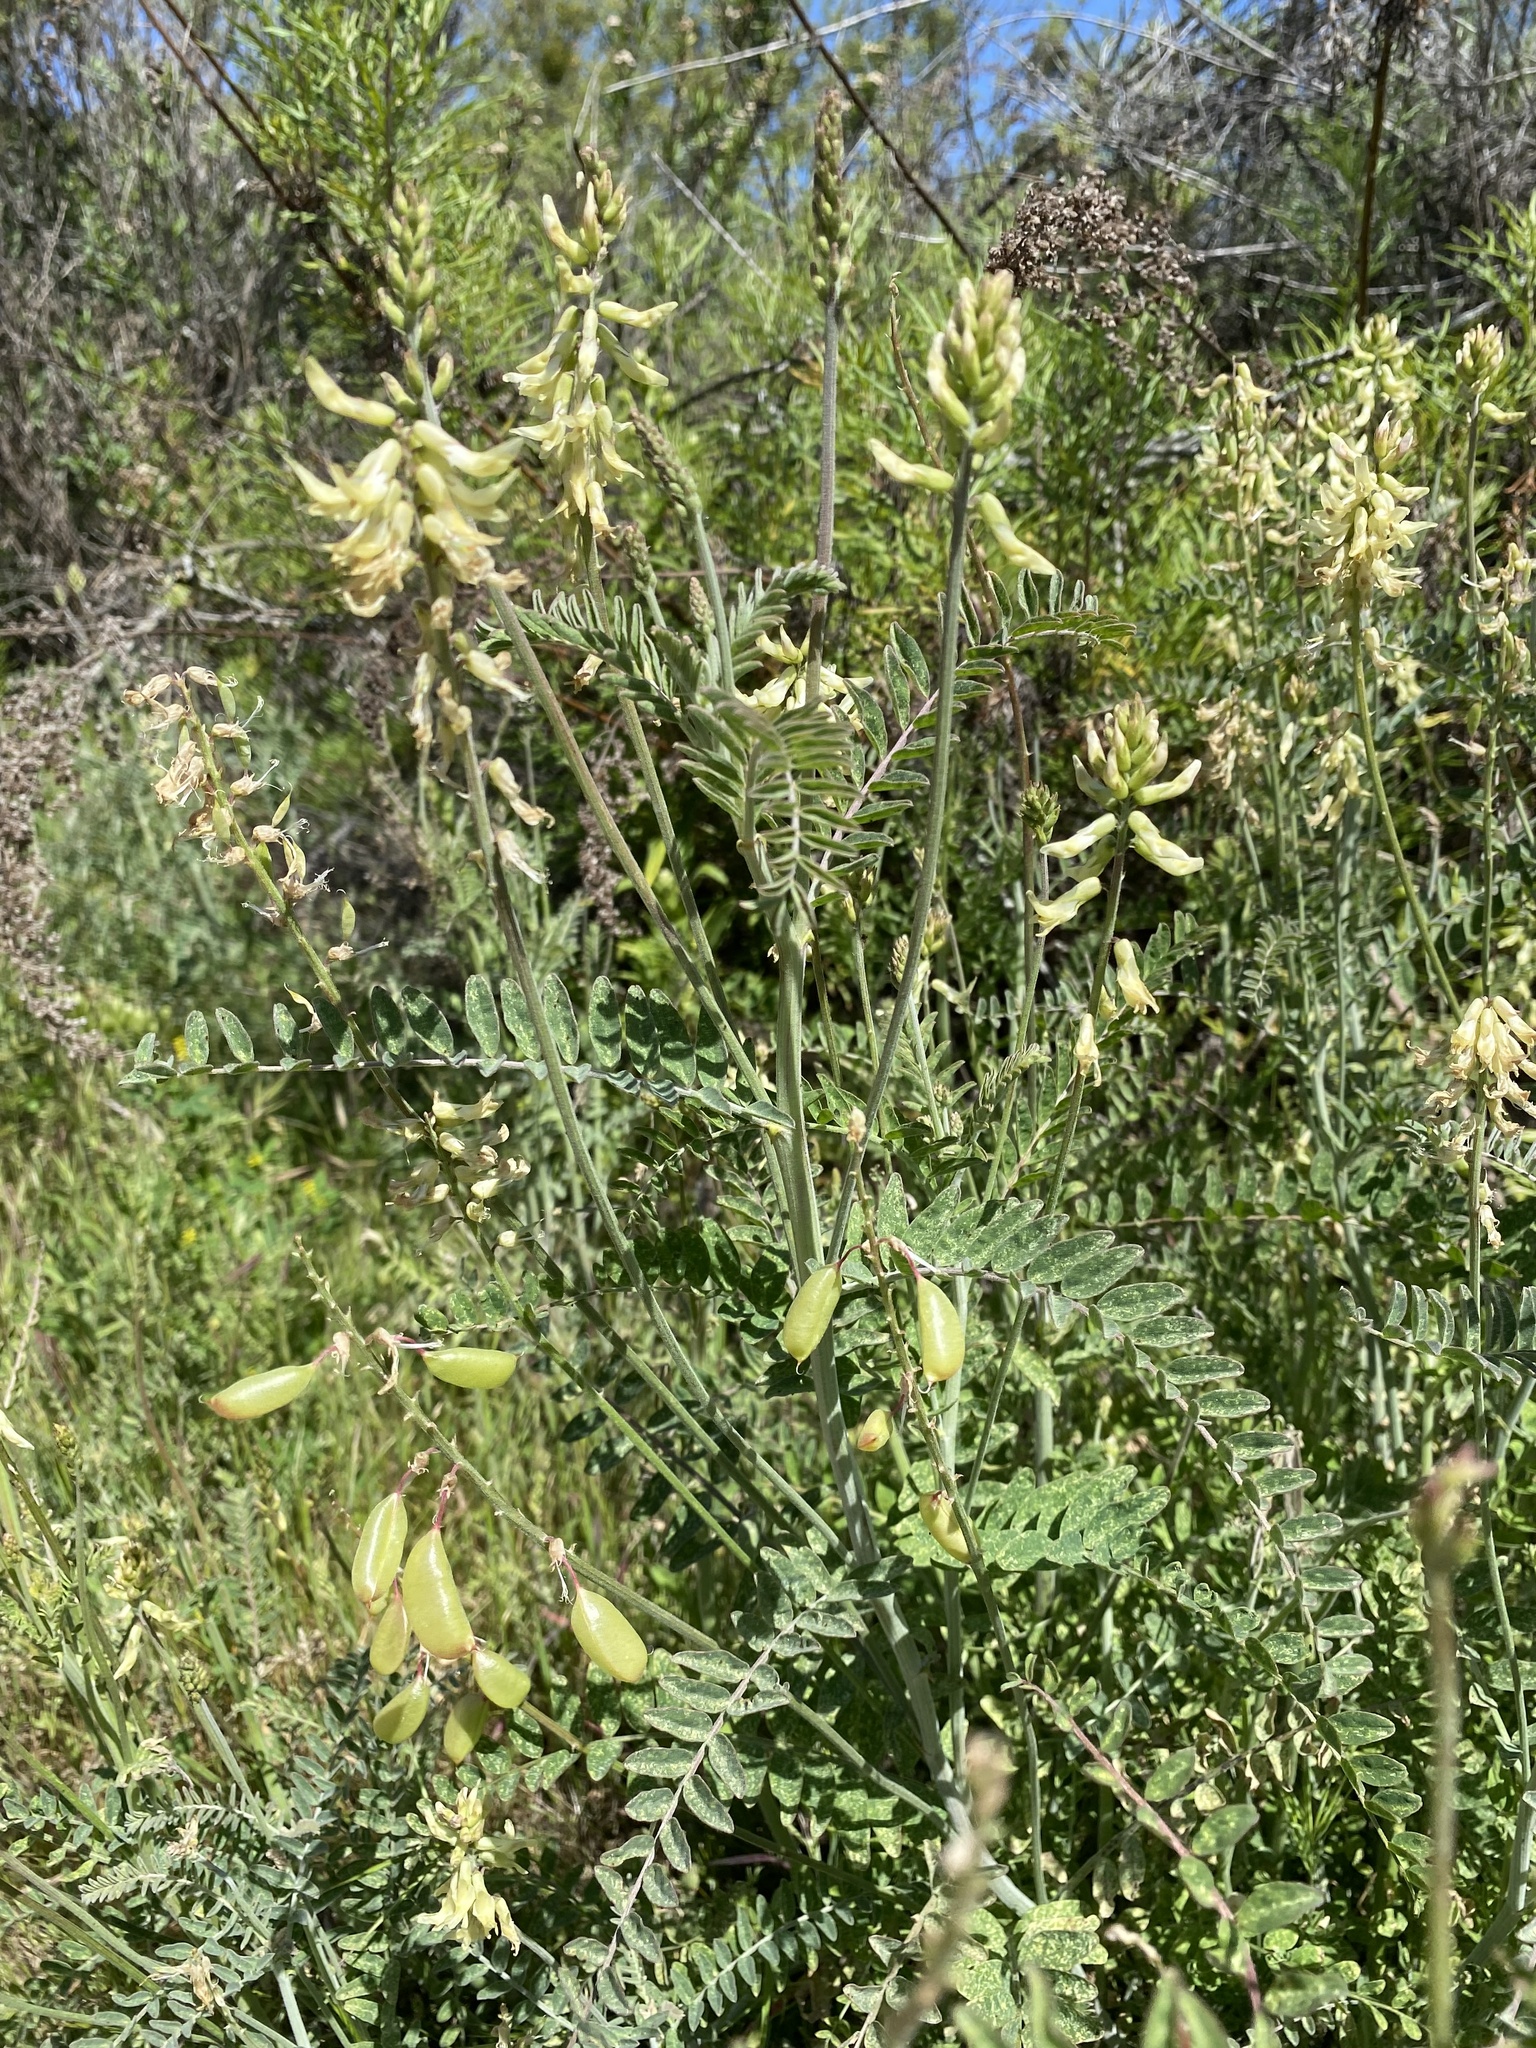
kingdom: Plantae
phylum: Tracheophyta
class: Magnoliopsida
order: Fabales
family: Fabaceae
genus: Astragalus
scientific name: Astragalus trichopodus
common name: Santa barbara milk-vetch
